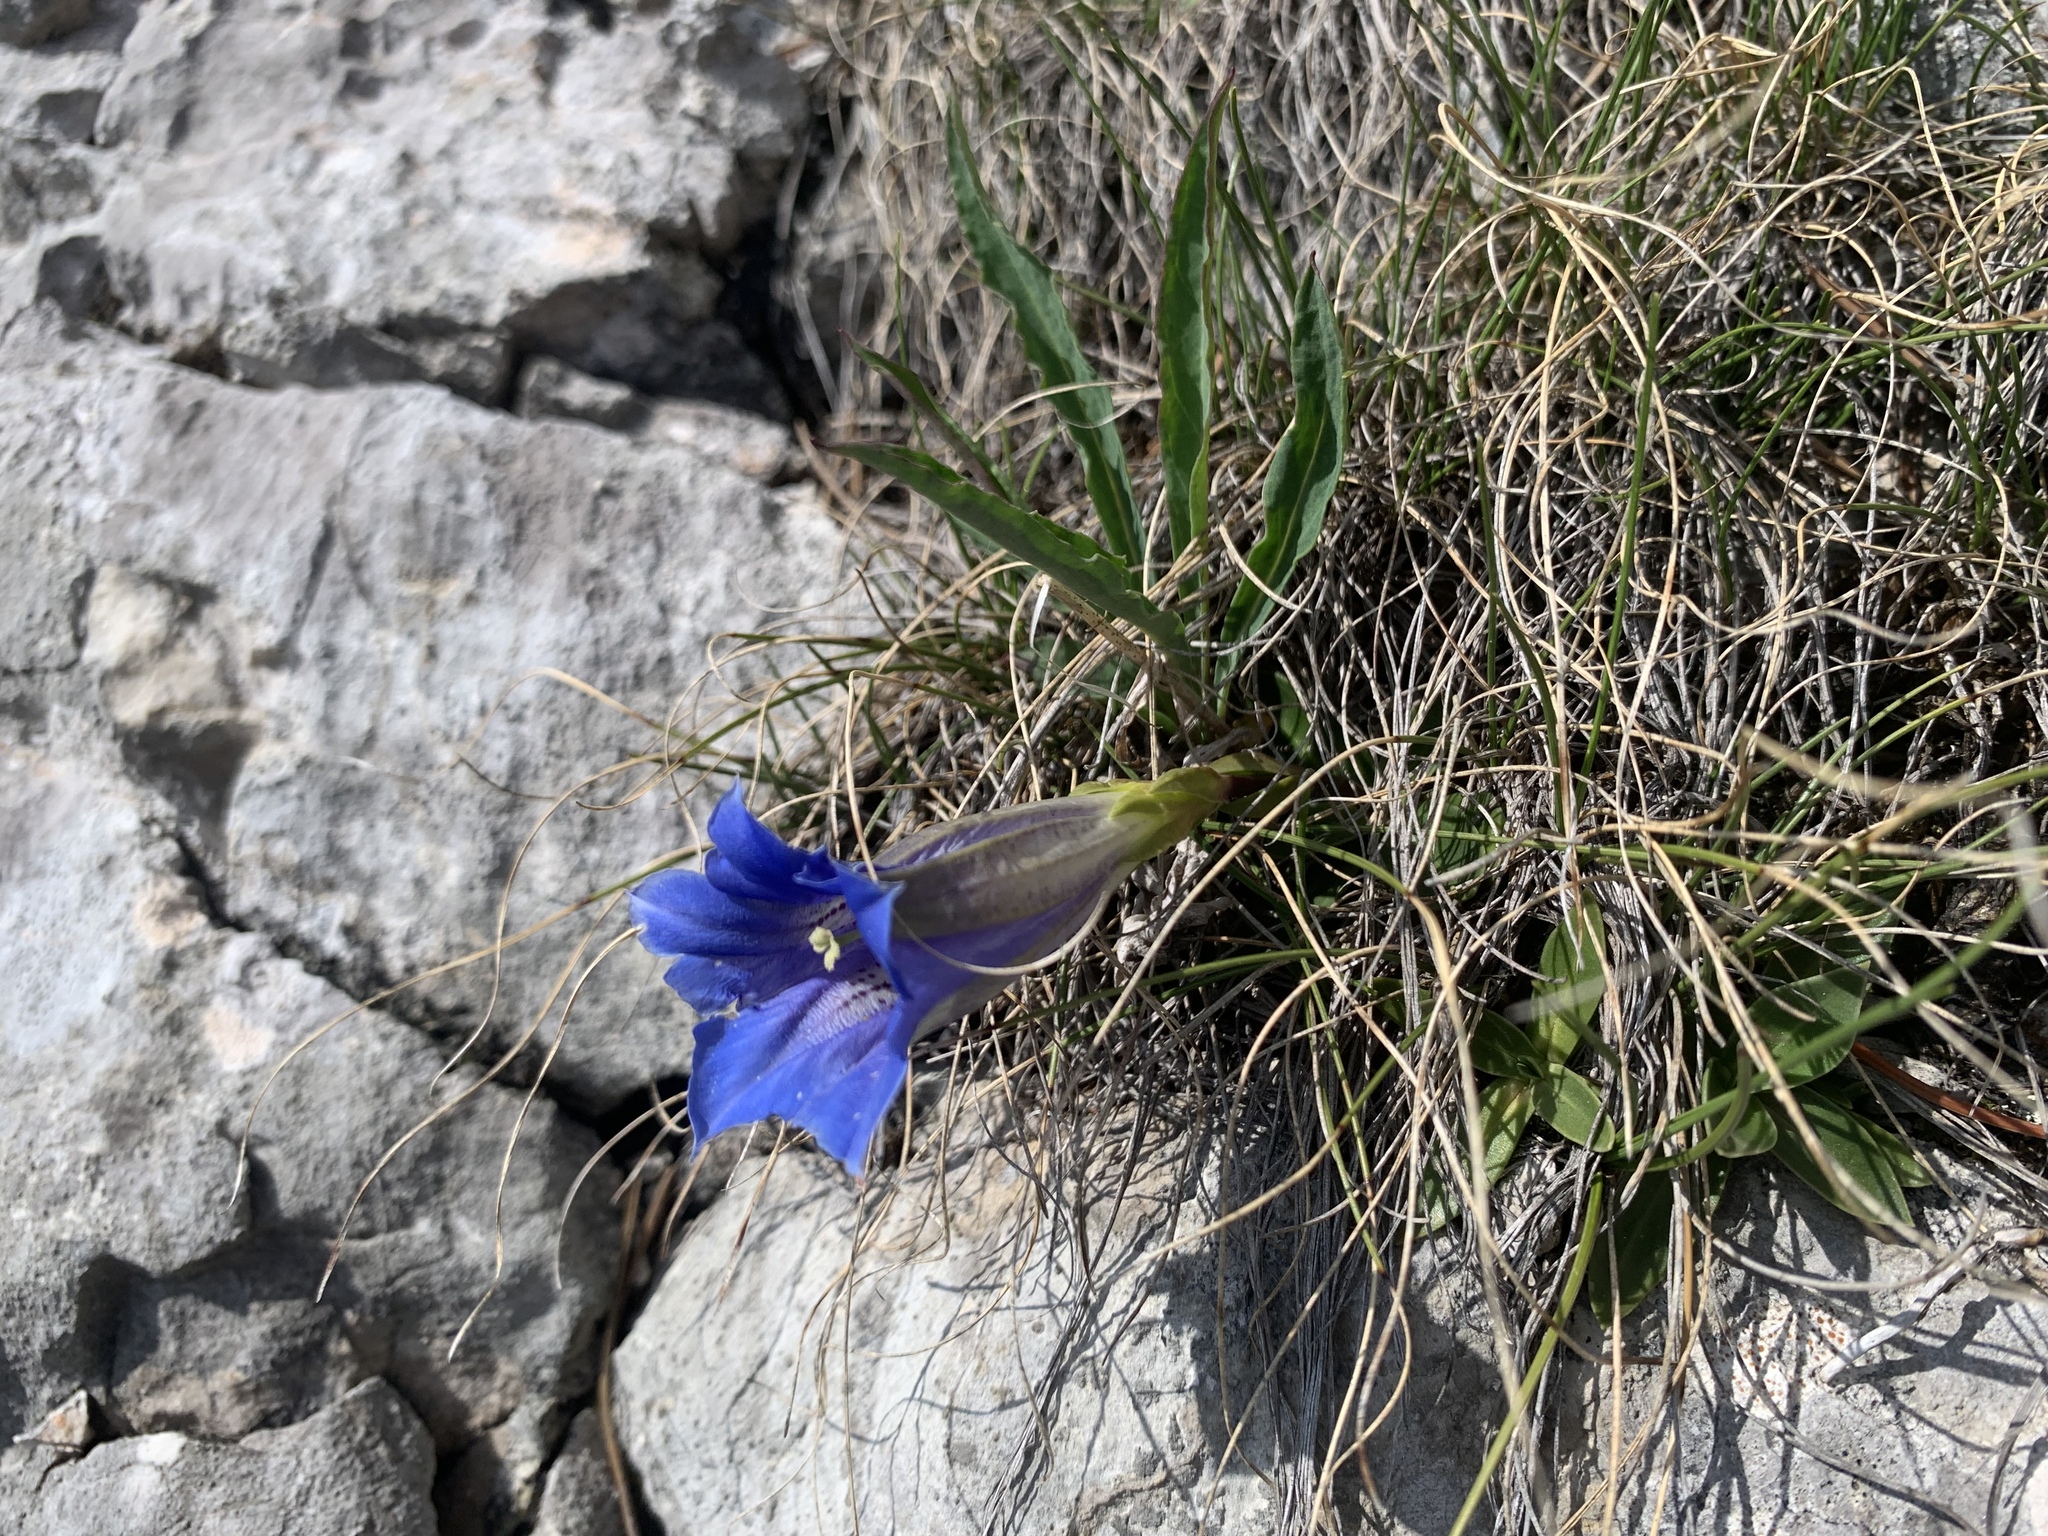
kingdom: Plantae
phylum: Tracheophyta
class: Magnoliopsida
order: Gentianales
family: Gentianaceae
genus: Gentiana
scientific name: Gentiana clusii
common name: Trumpet gentian
